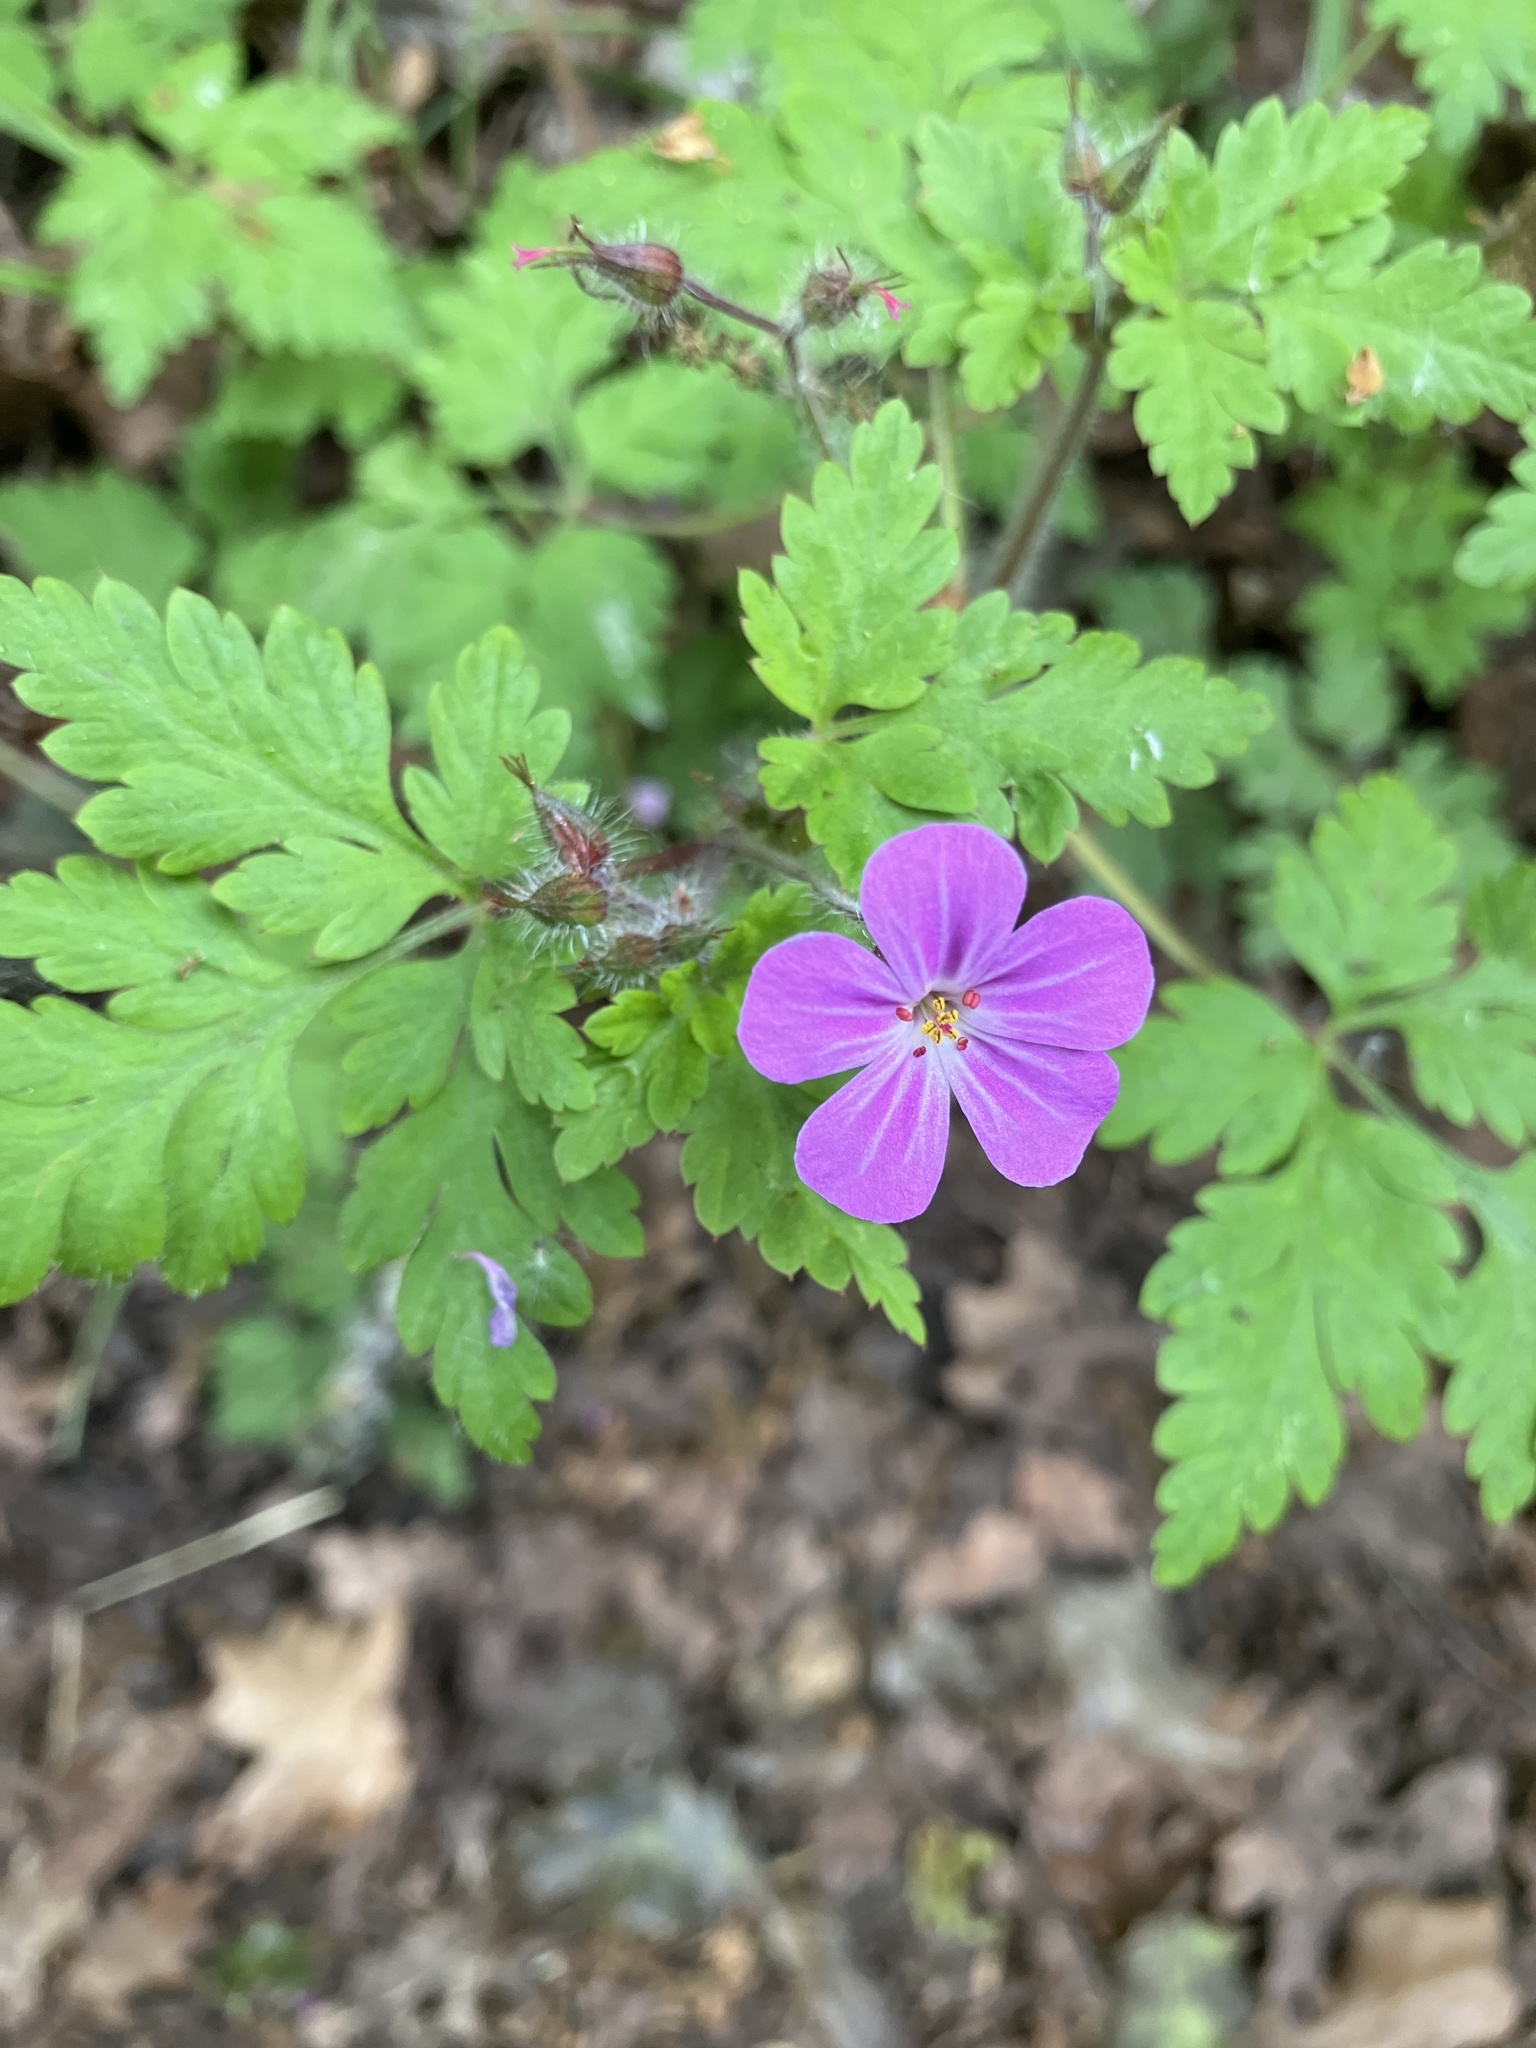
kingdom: Plantae
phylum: Tracheophyta
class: Magnoliopsida
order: Geraniales
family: Geraniaceae
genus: Geranium
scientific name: Geranium robertianum
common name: Herb-robert
